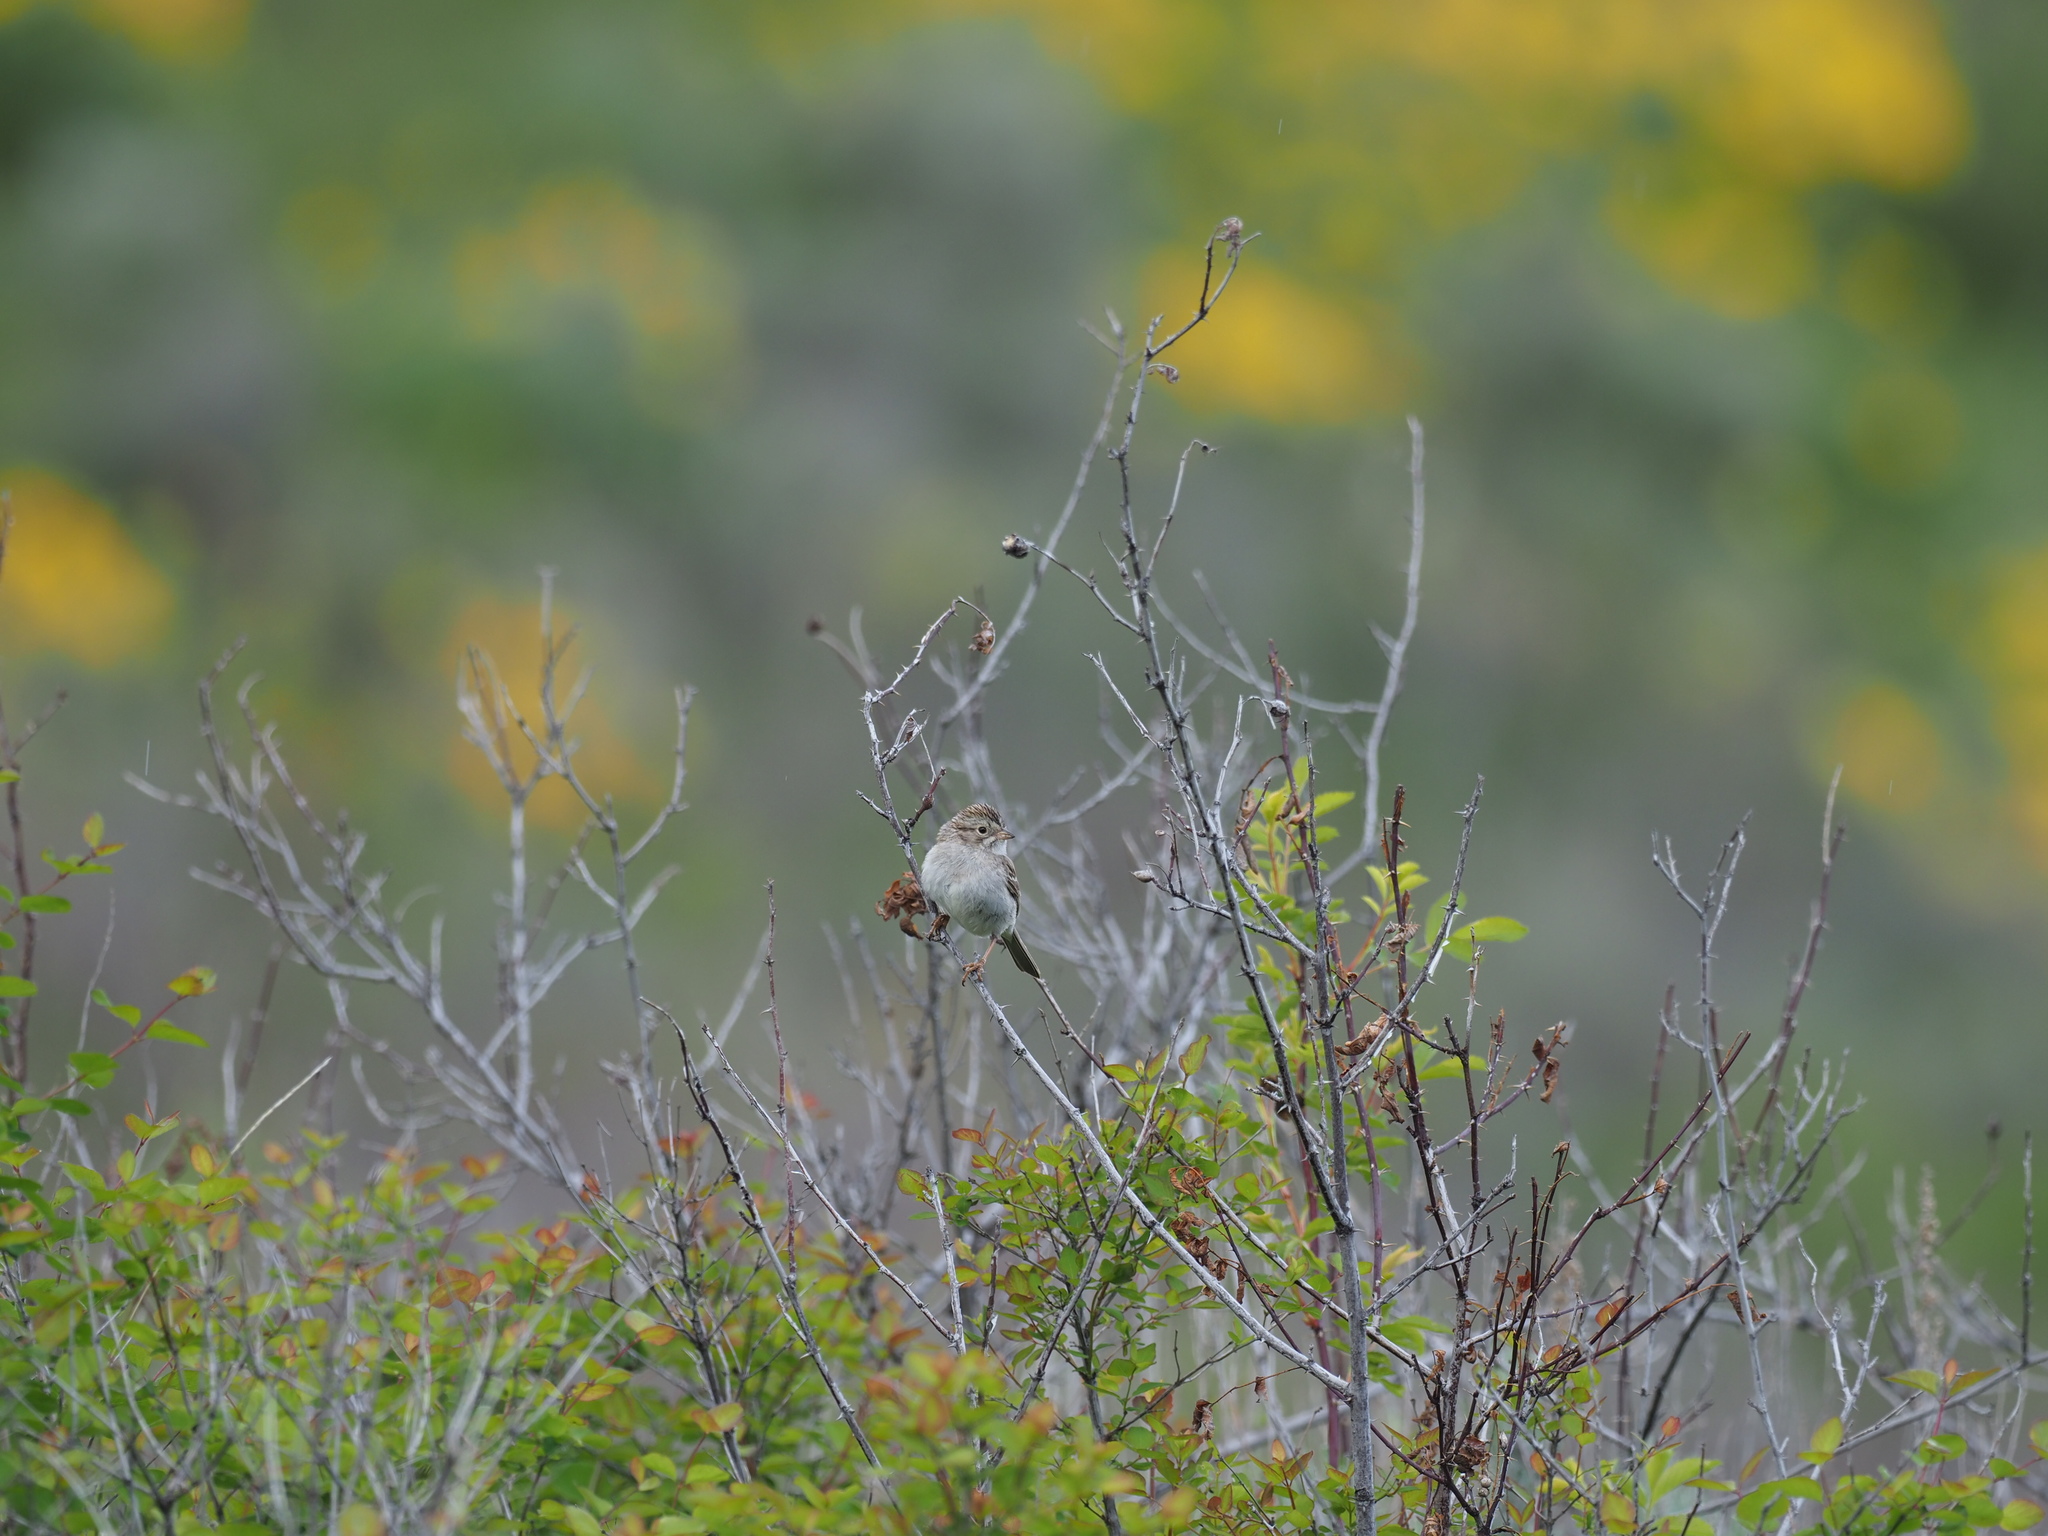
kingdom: Animalia
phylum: Chordata
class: Aves
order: Passeriformes
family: Passerellidae
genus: Spizella
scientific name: Spizella breweri
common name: Brewer's sparrow
